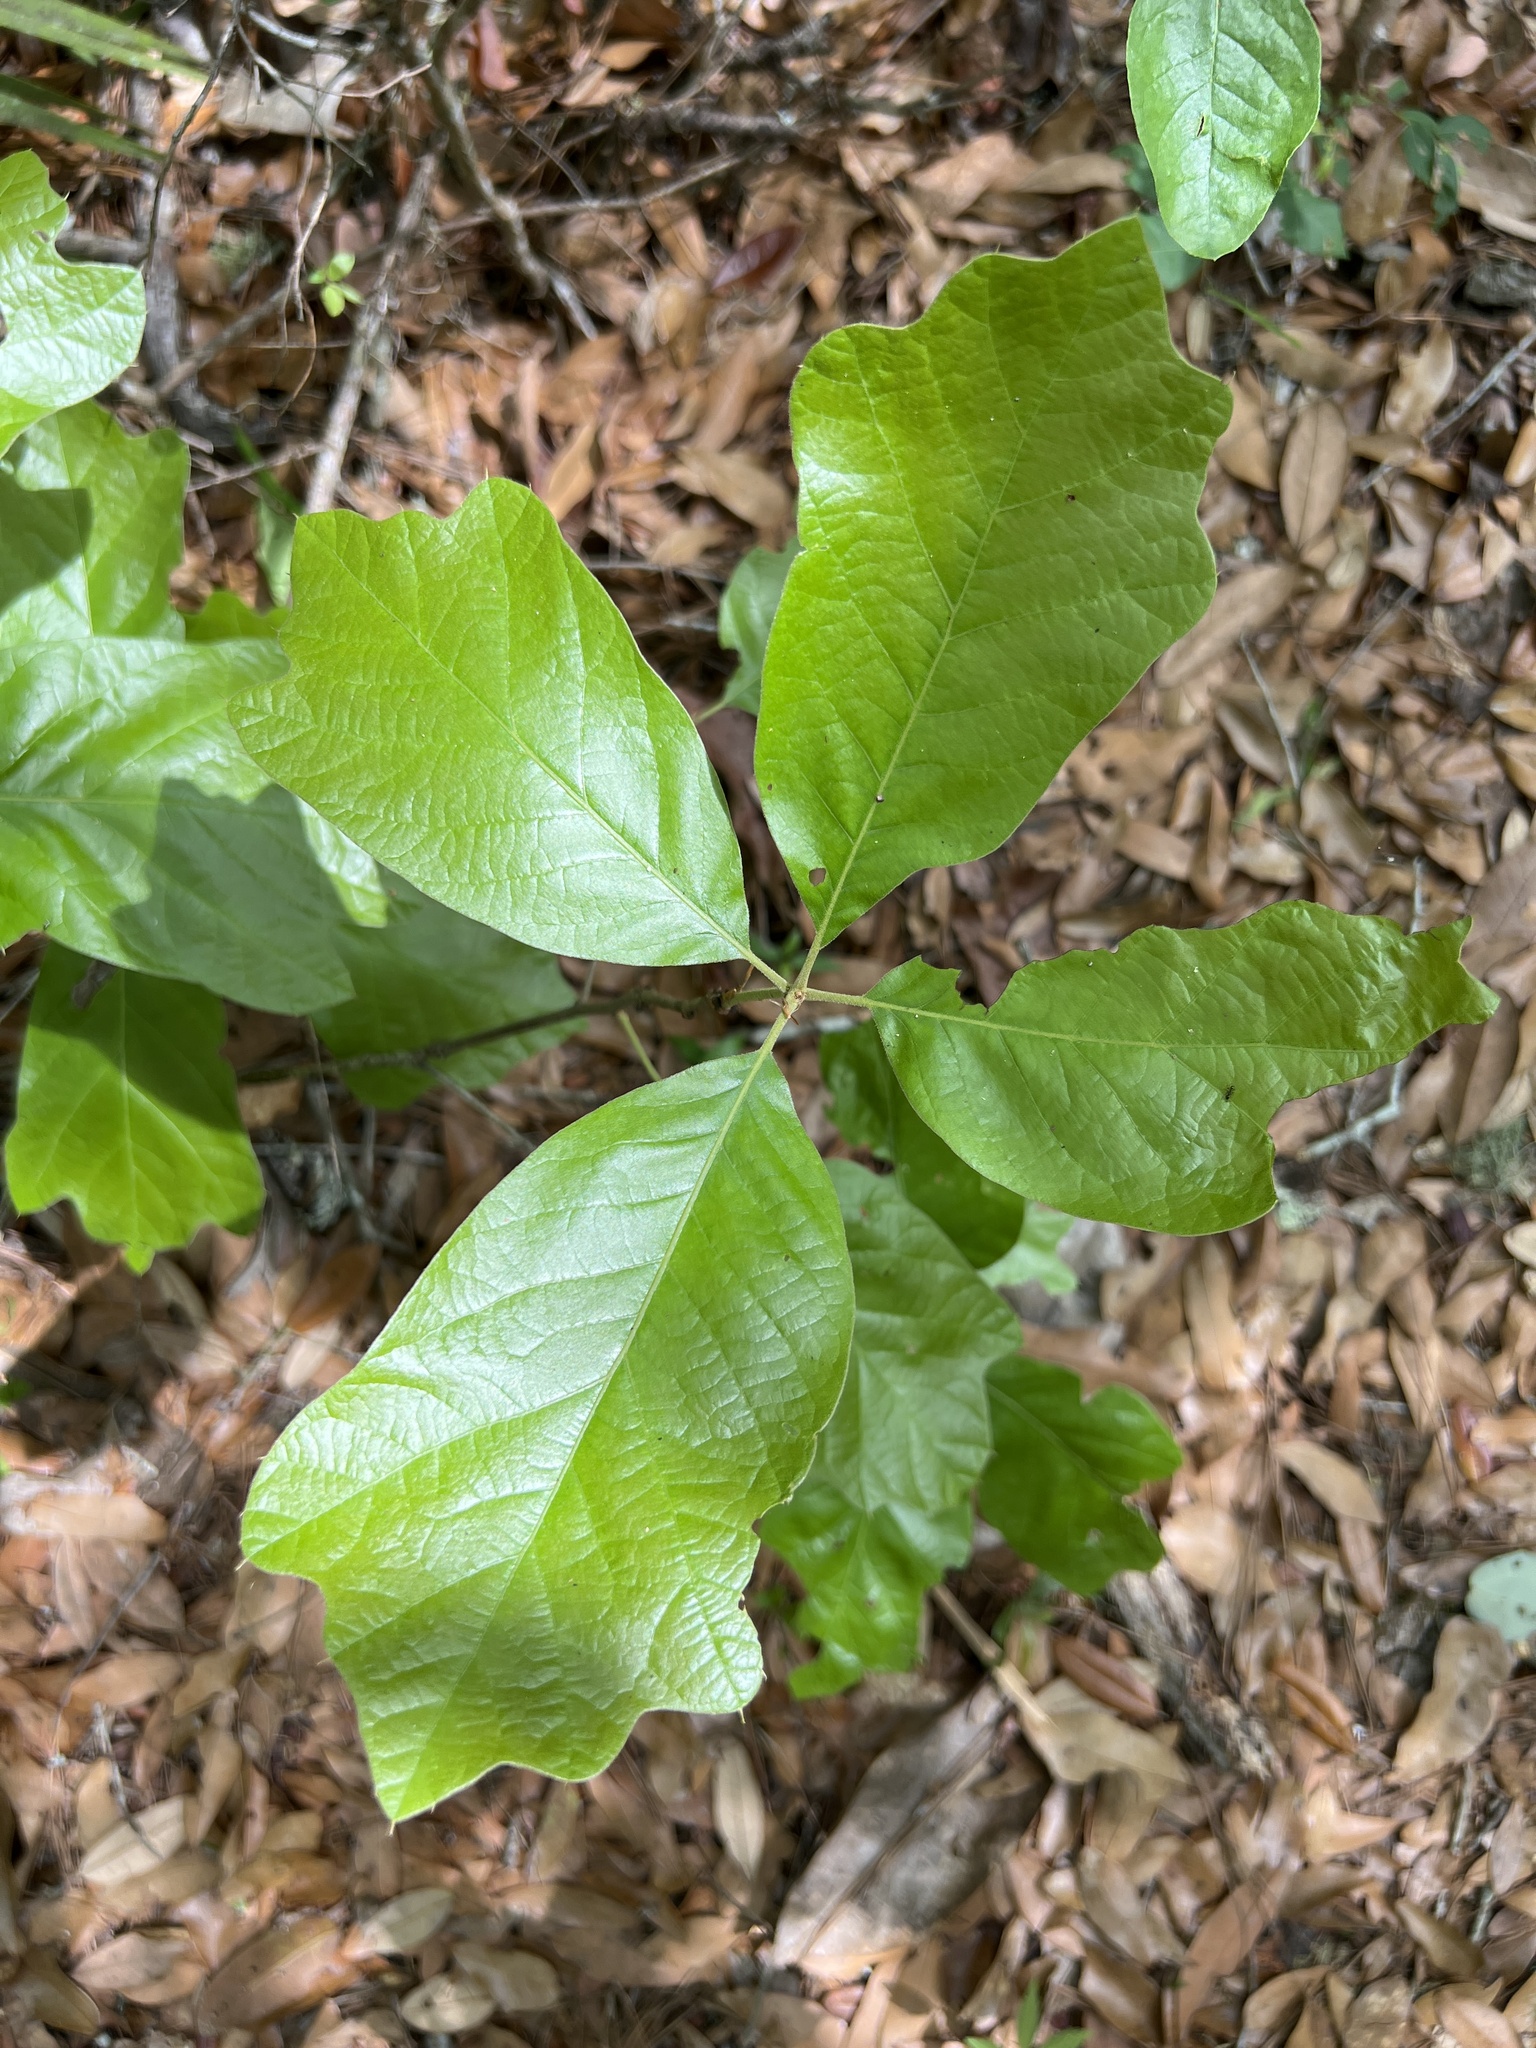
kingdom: Plantae
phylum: Tracheophyta
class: Magnoliopsida
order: Fagales
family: Fagaceae
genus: Quercus
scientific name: Quercus falcata
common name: Southern red oak
